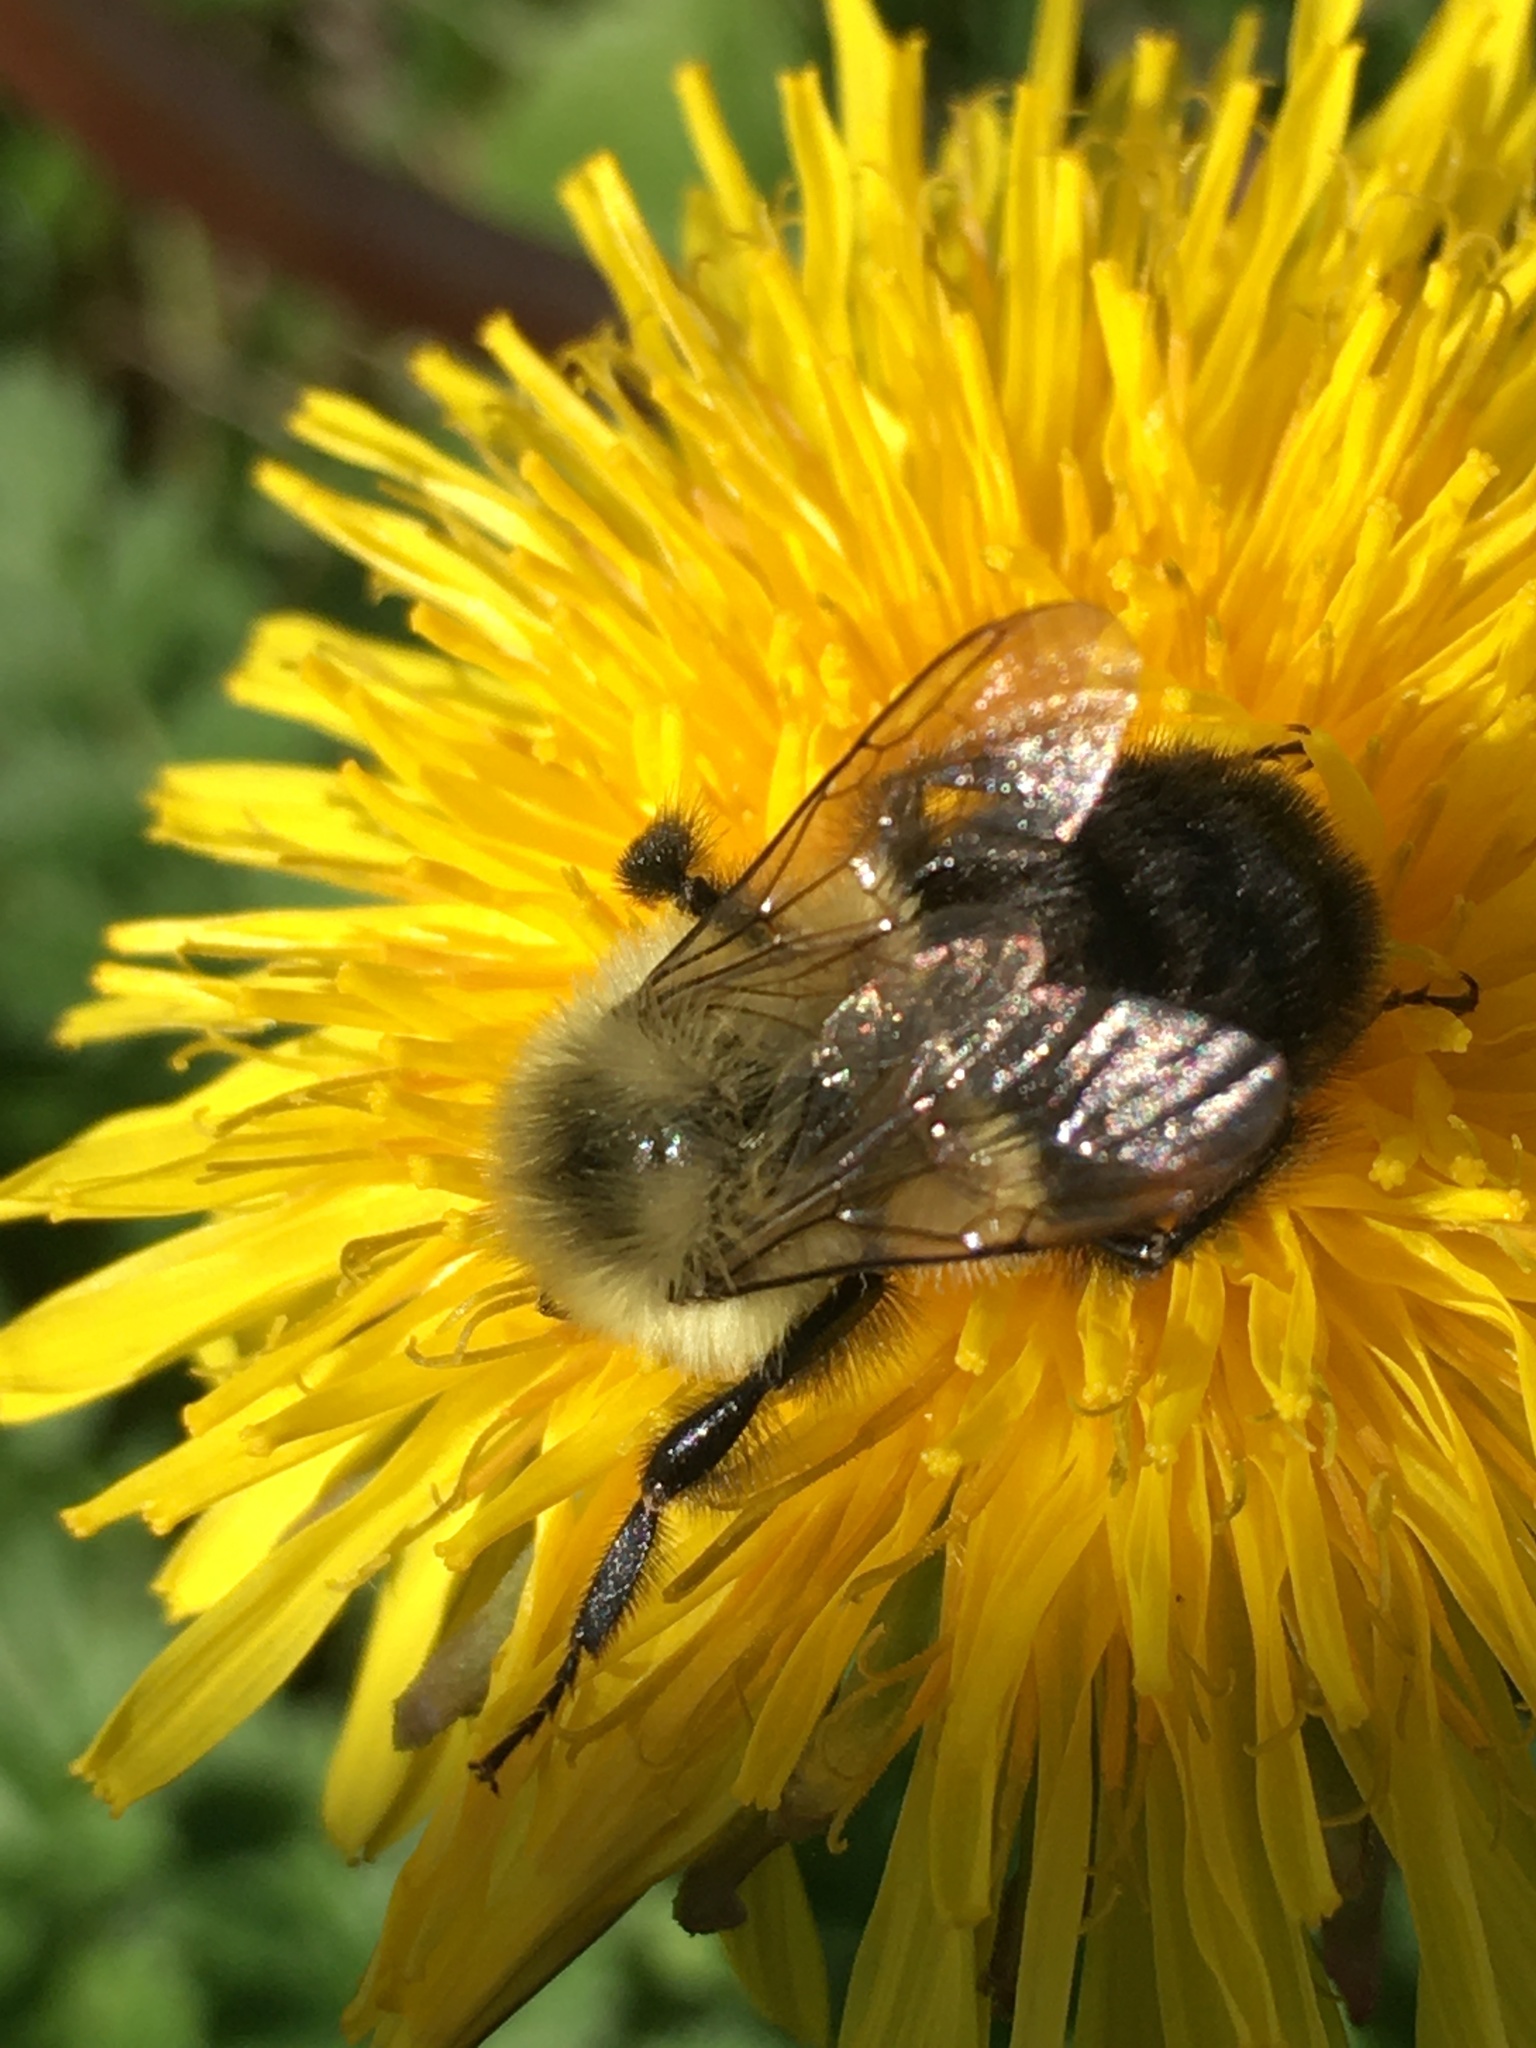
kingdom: Animalia
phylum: Arthropoda
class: Insecta
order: Hymenoptera
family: Apidae
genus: Bombus
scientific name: Bombus impatiens
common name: Common eastern bumble bee
